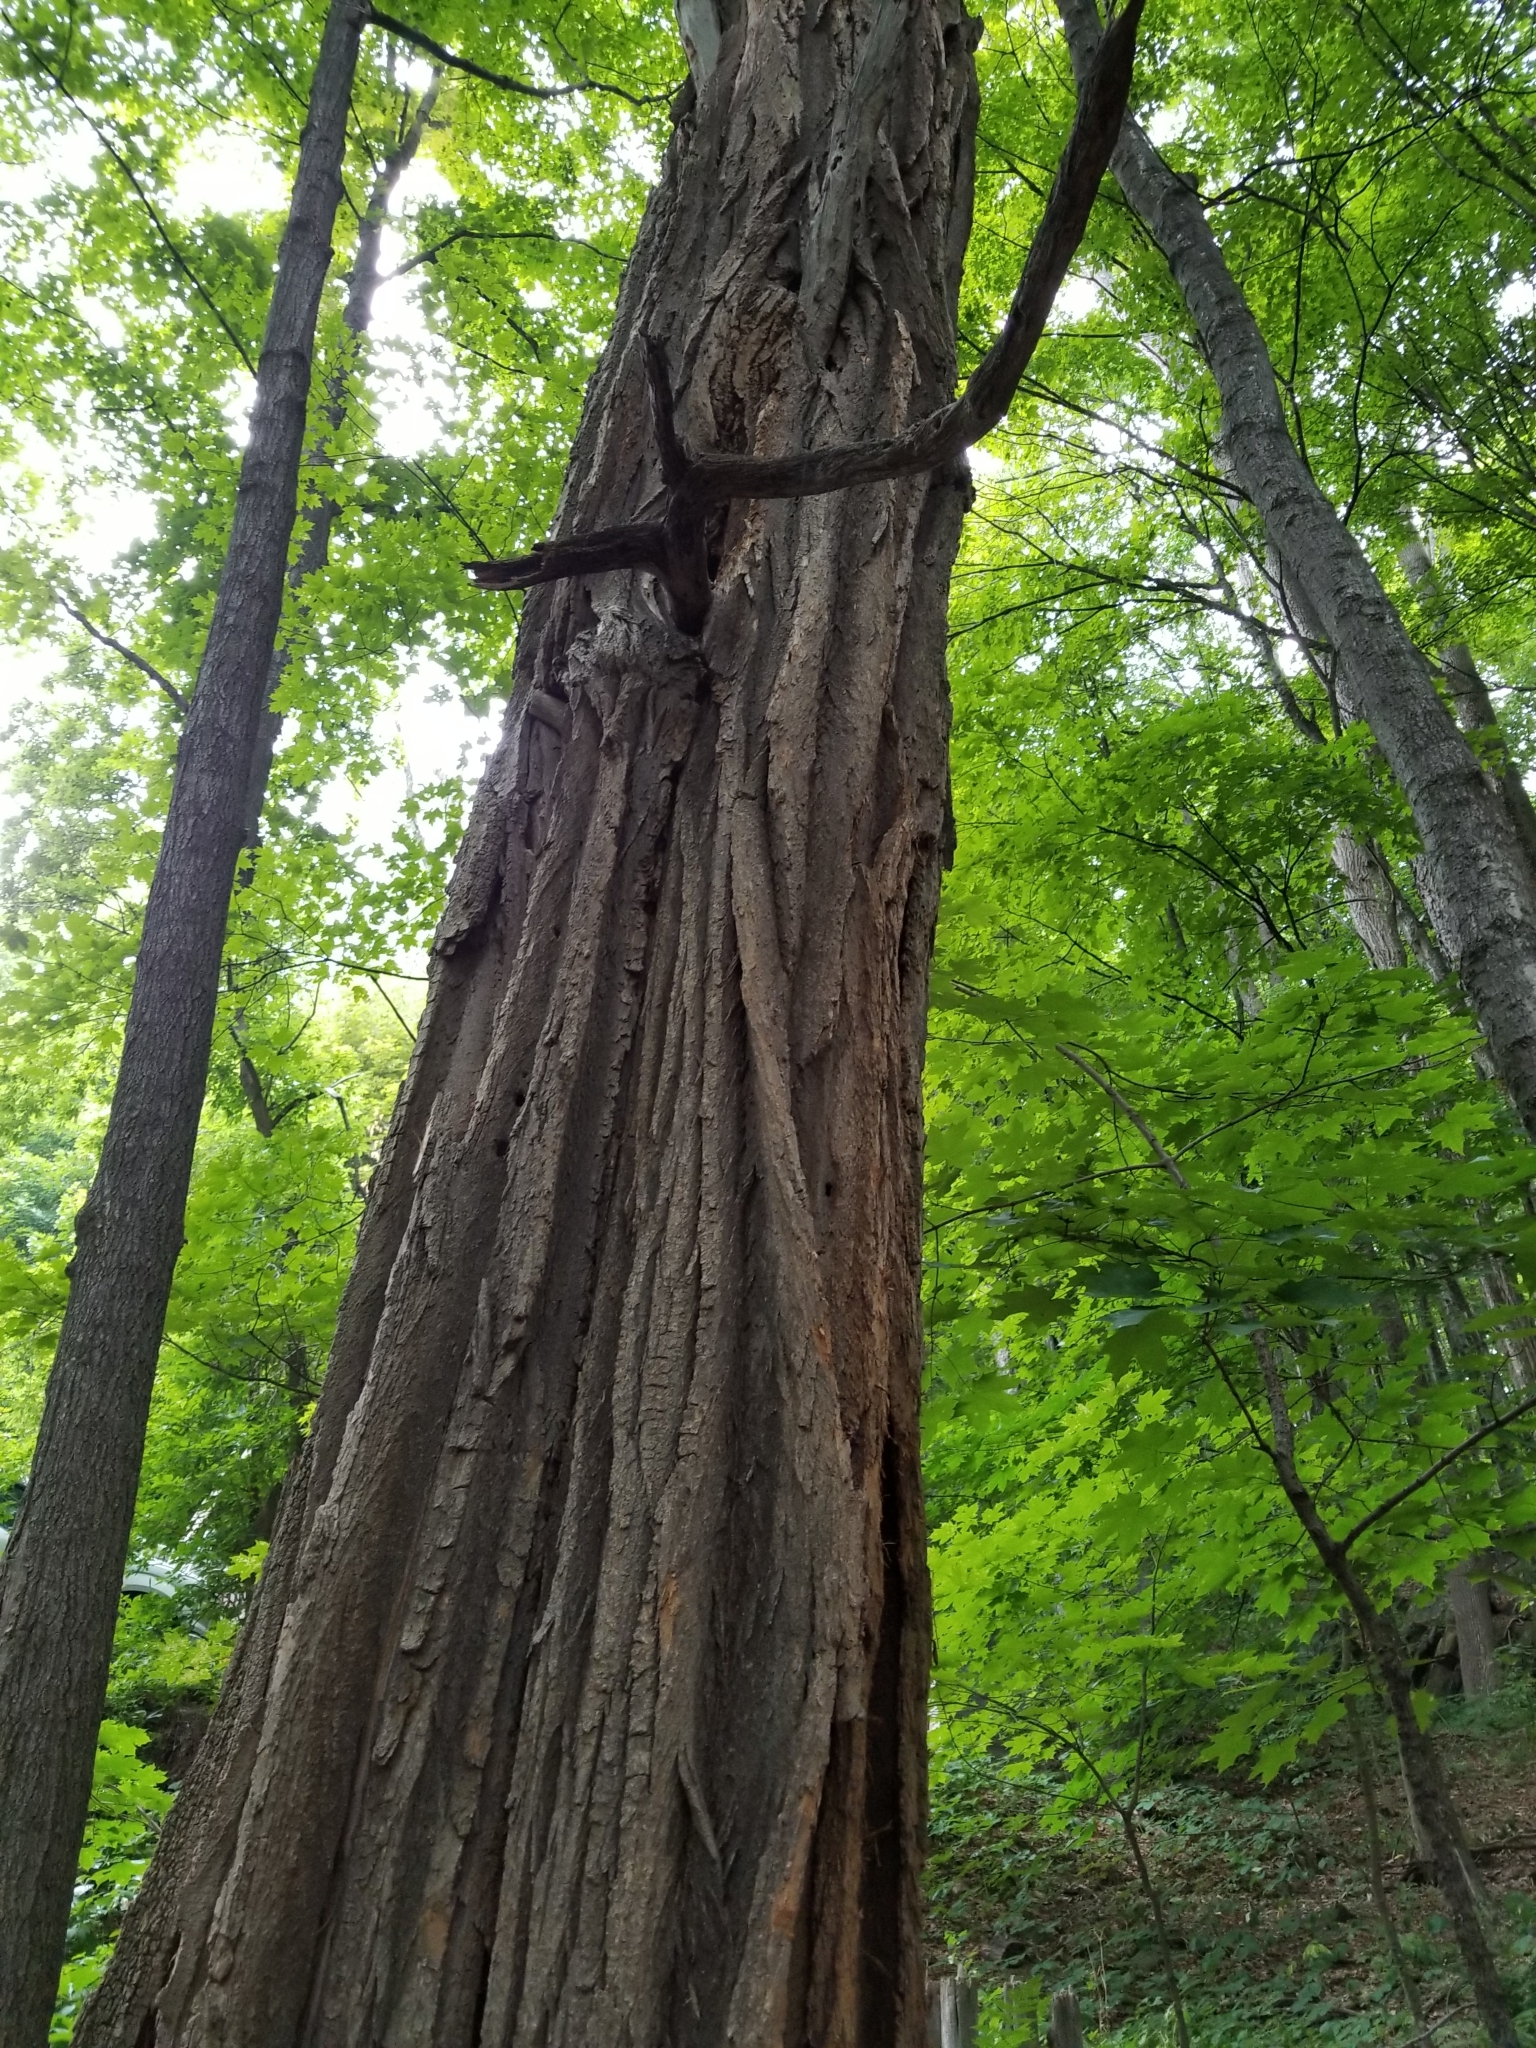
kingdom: Plantae
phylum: Tracheophyta
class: Magnoliopsida
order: Fabales
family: Fabaceae
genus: Robinia
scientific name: Robinia pseudoacacia
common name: Black locust
